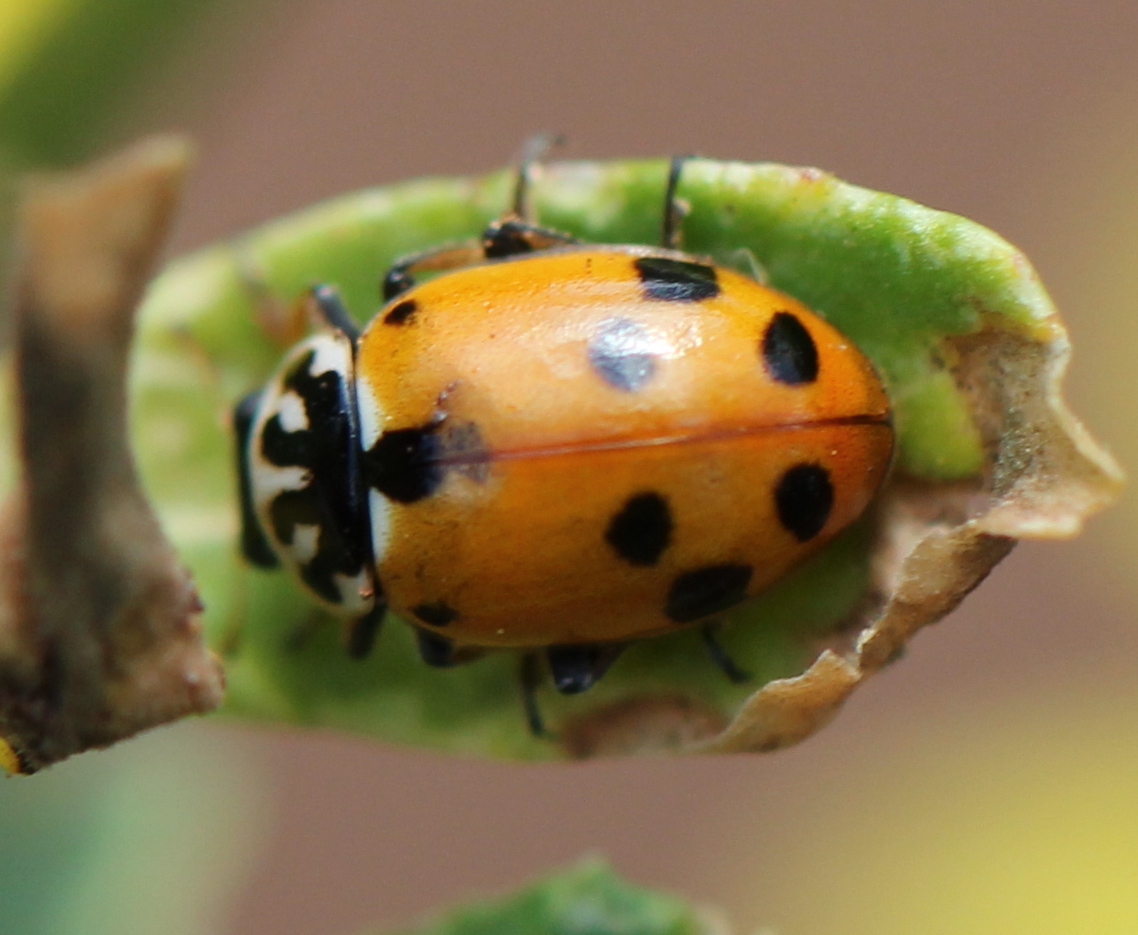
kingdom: Animalia
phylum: Arthropoda
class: Insecta
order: Coleoptera
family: Coccinellidae
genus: Hippodamia
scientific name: Hippodamia variegata
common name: Ladybird beetle
